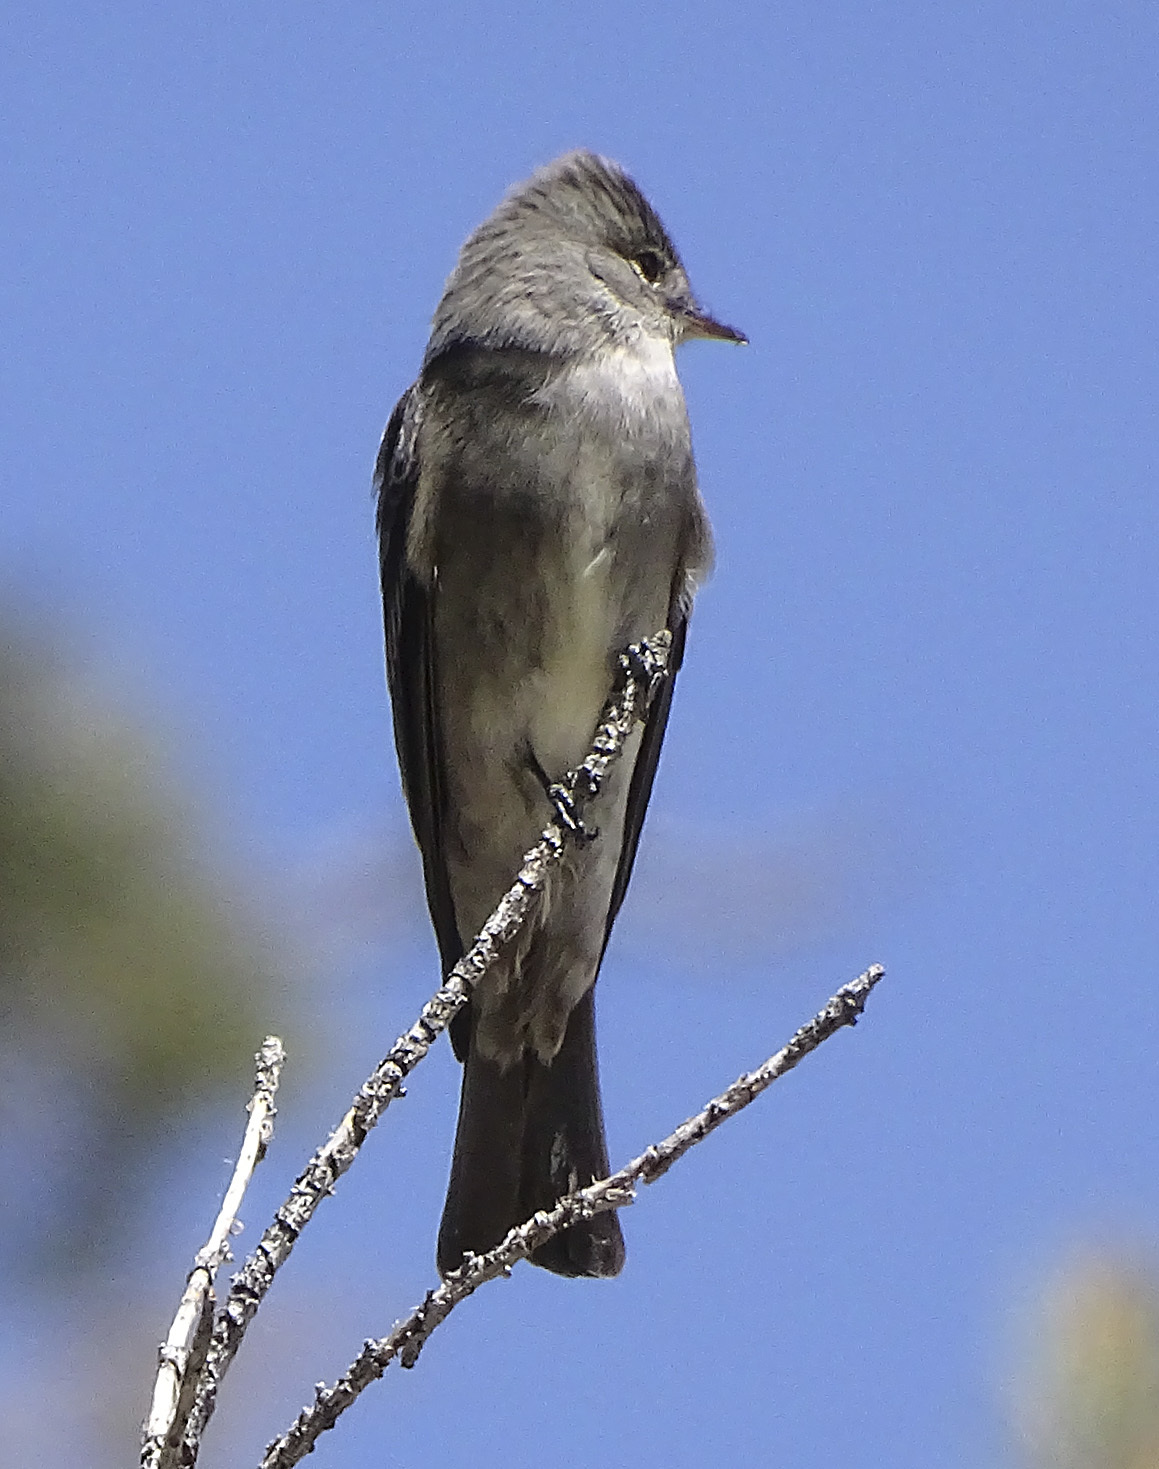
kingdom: Animalia
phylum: Chordata
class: Aves
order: Passeriformes
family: Tyrannidae
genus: Contopus
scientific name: Contopus sordidulus
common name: Western wood-pewee
